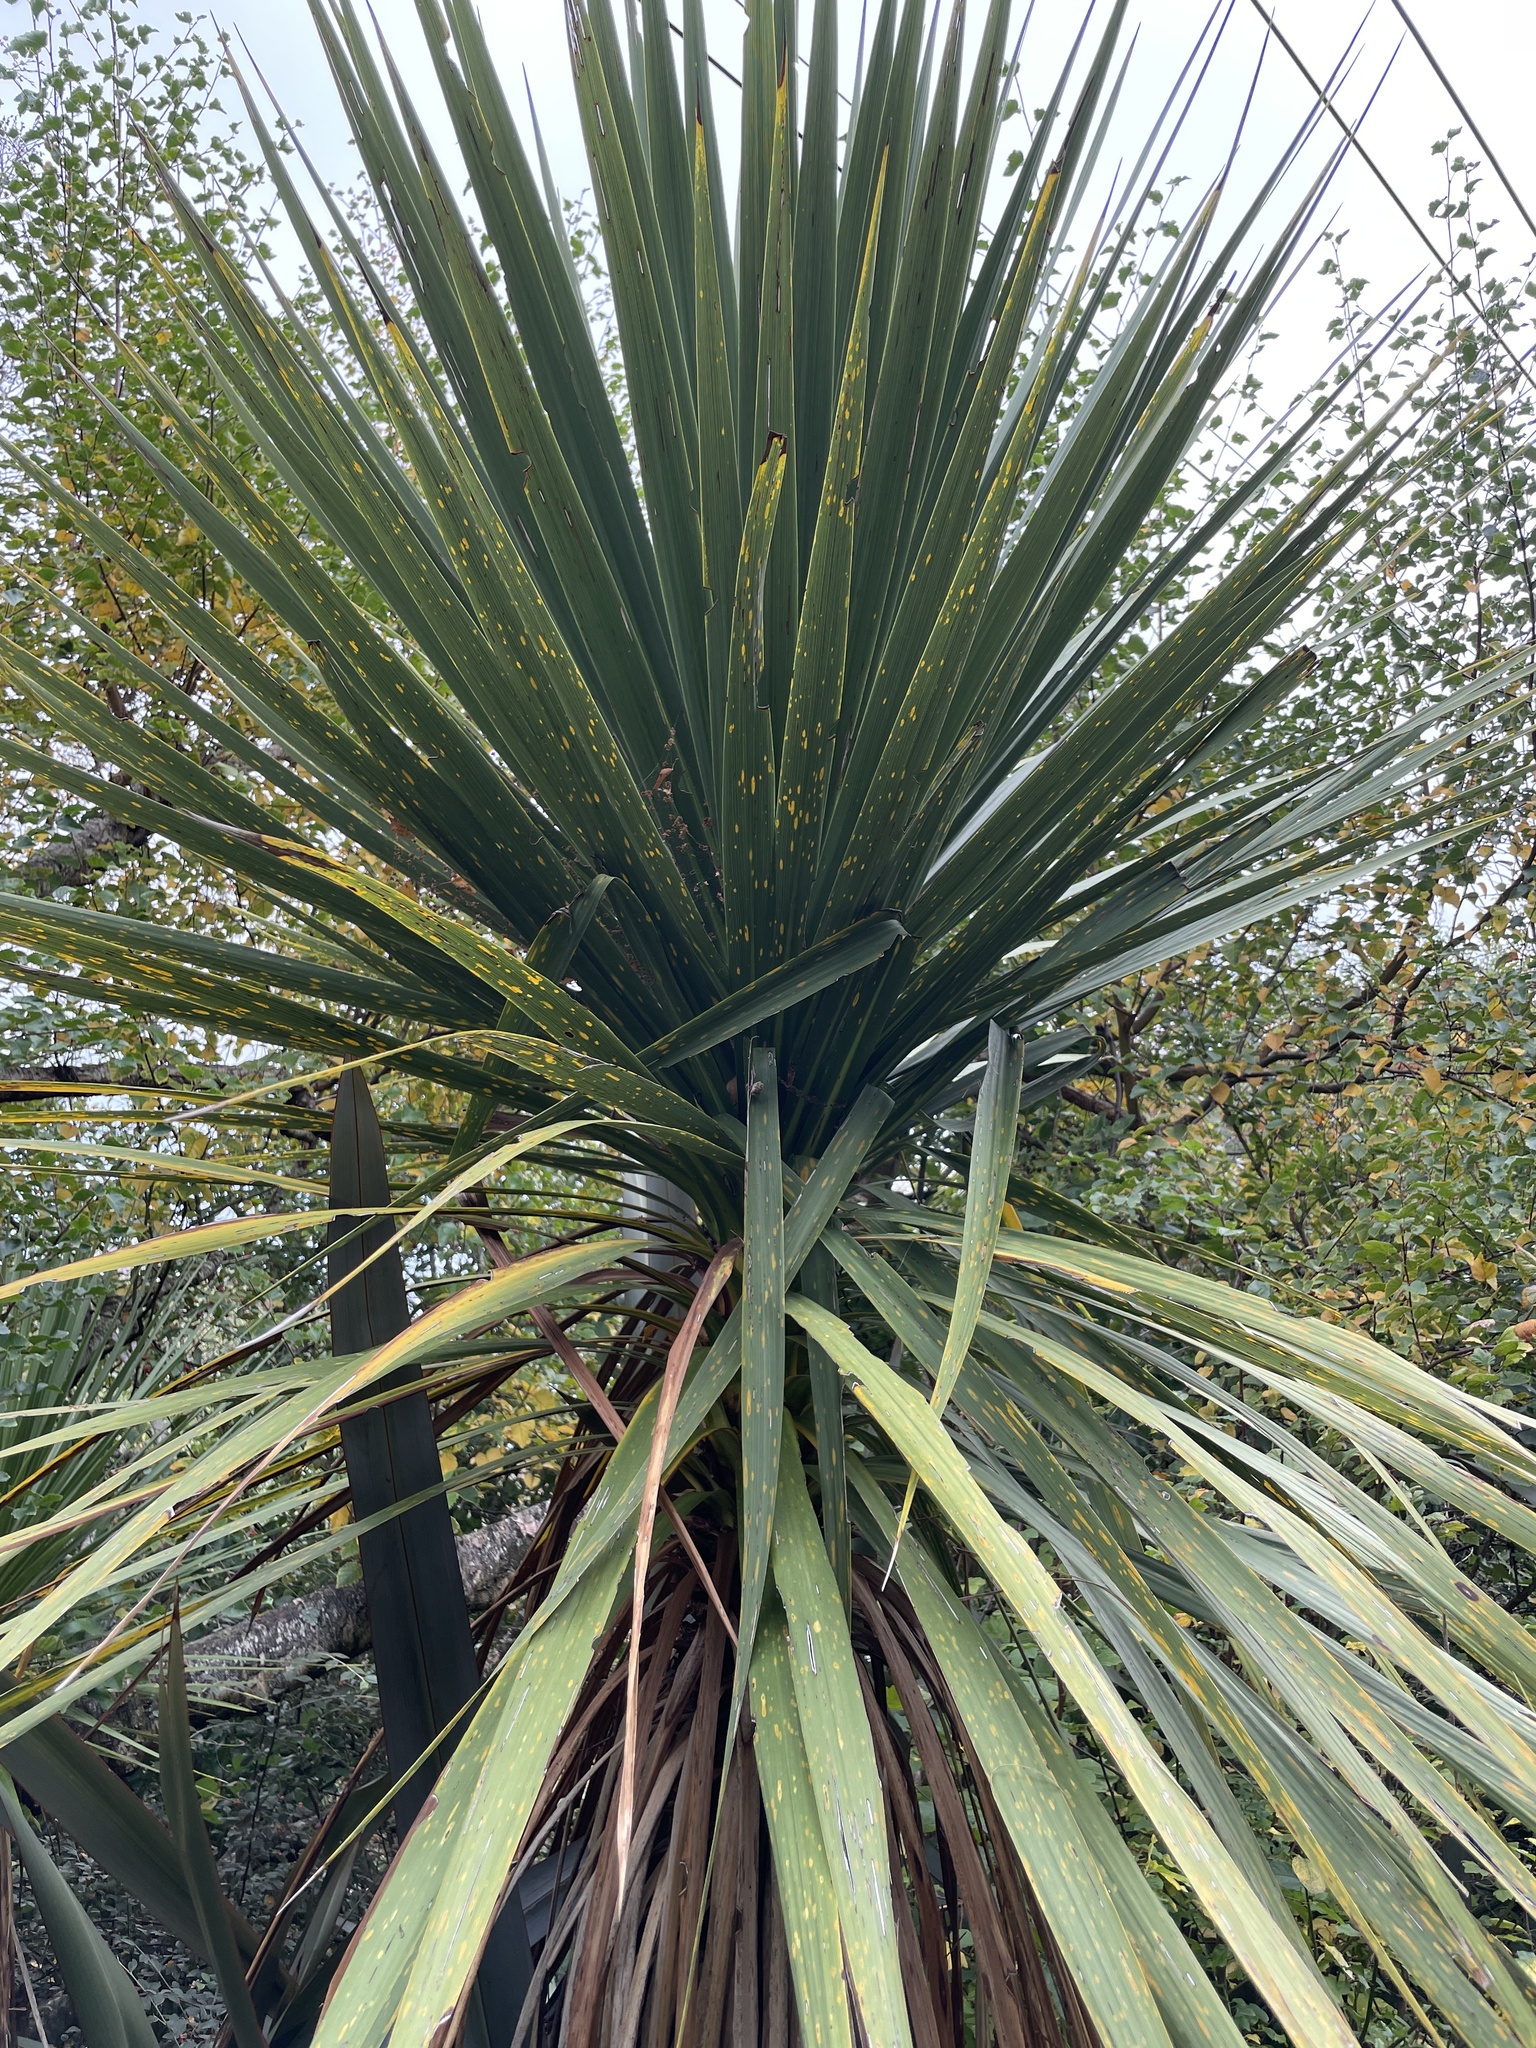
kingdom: Plantae
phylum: Tracheophyta
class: Liliopsida
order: Asparagales
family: Asparagaceae
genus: Cordyline
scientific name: Cordyline australis
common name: Cabbage-palm
